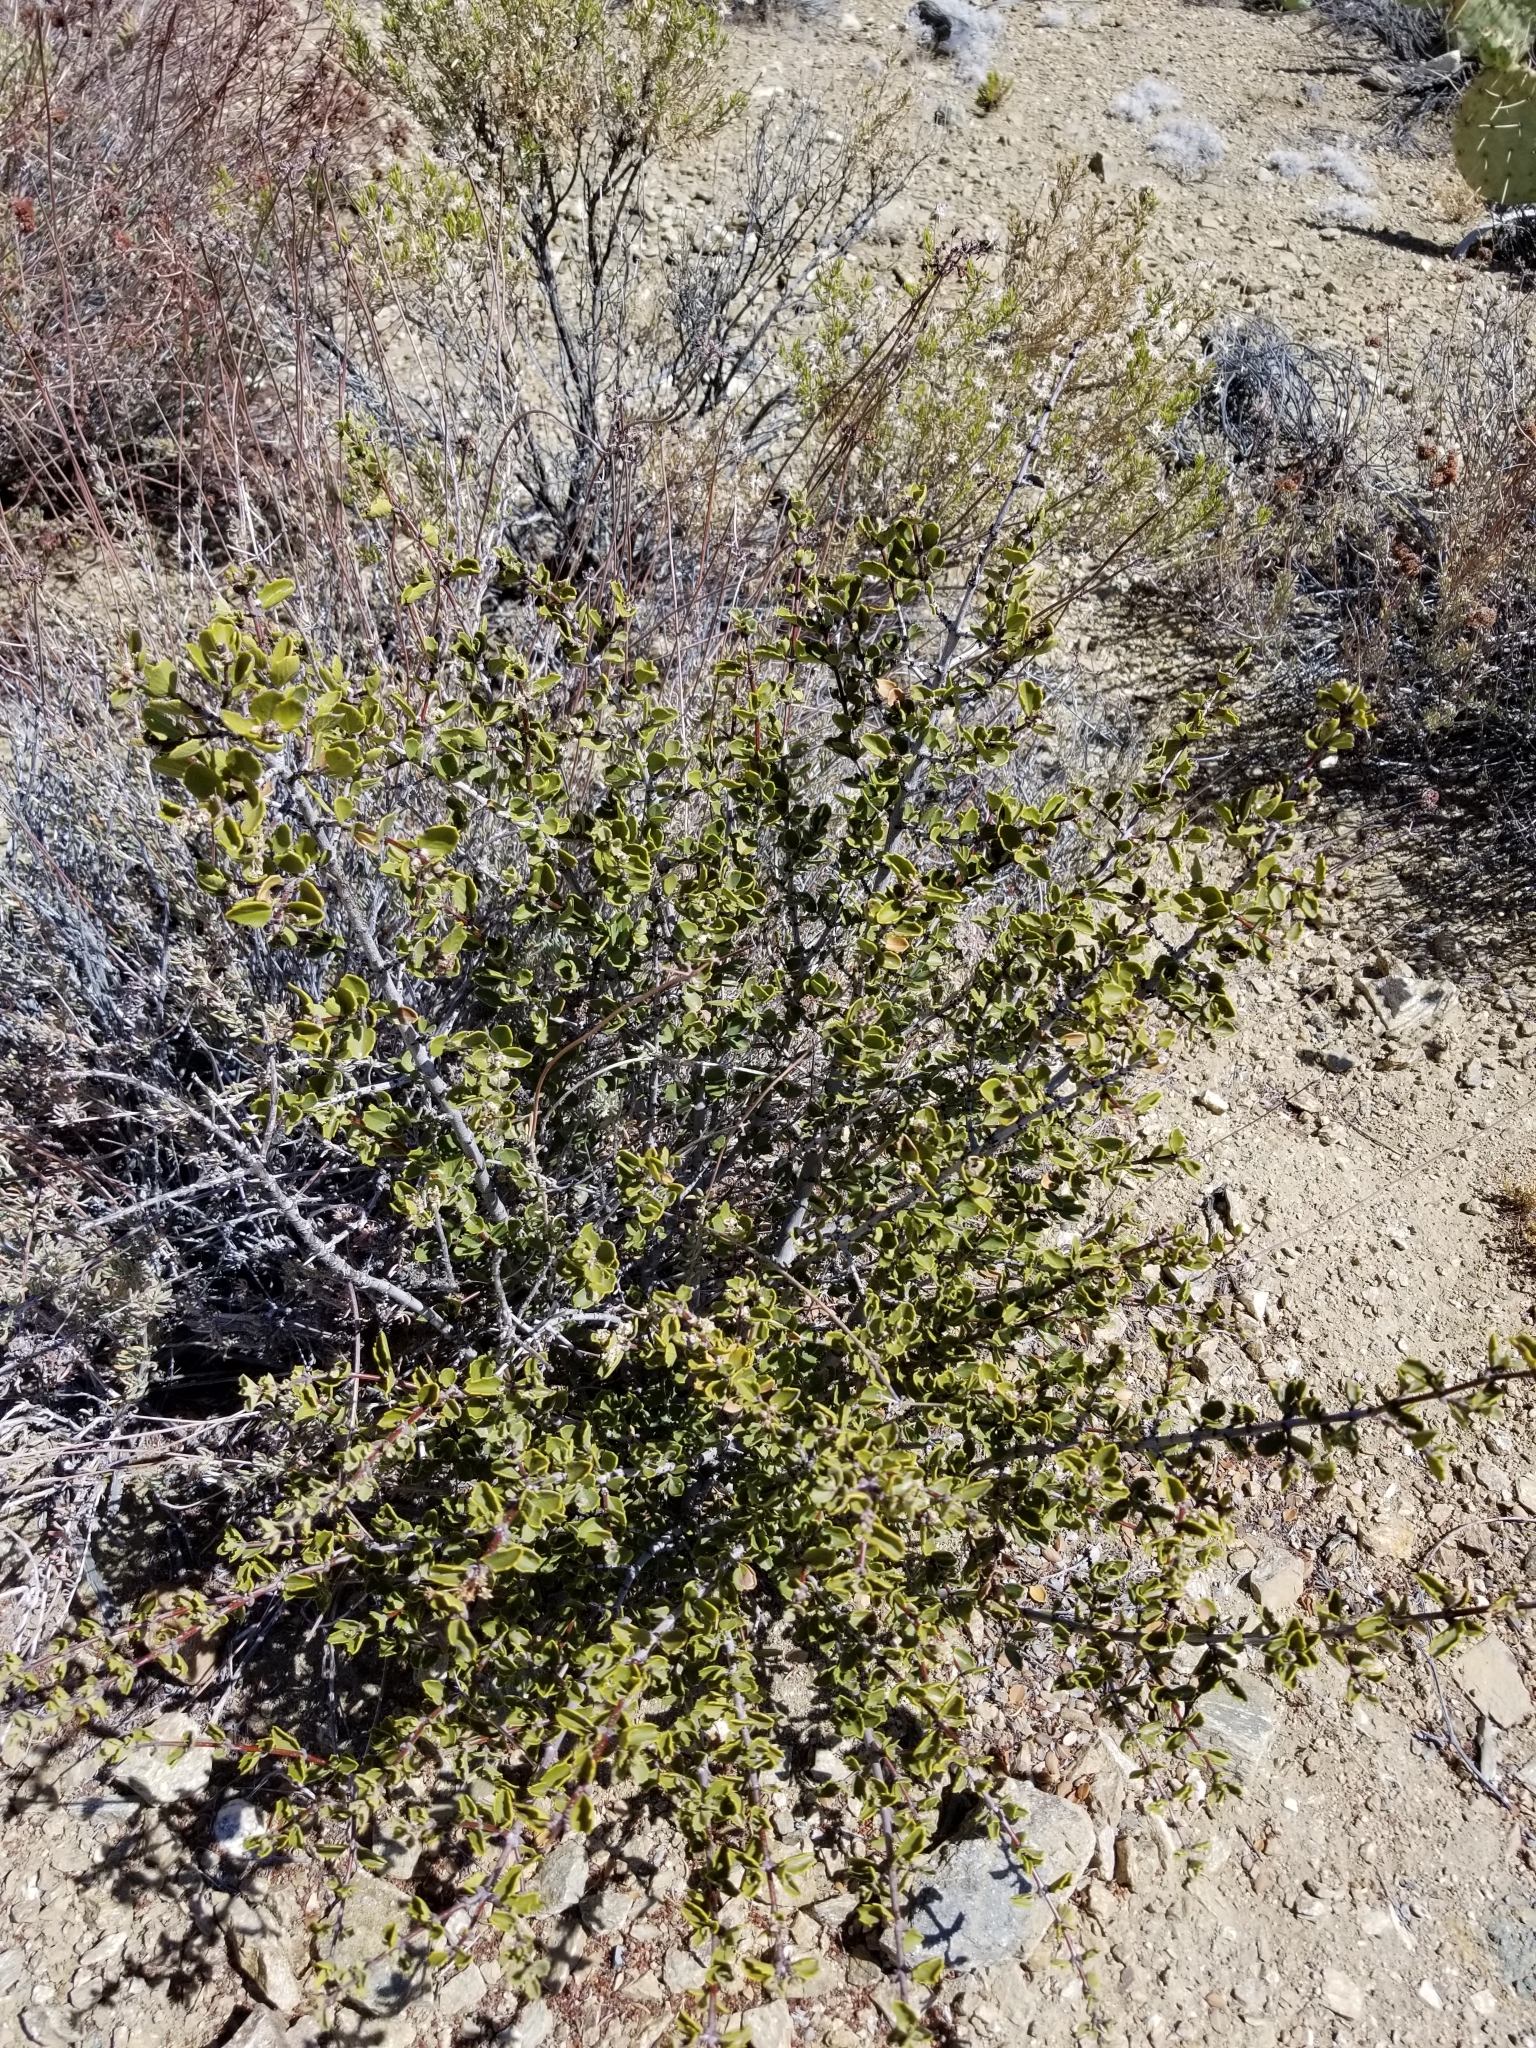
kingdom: Plantae
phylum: Tracheophyta
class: Magnoliopsida
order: Rosales
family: Rhamnaceae
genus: Ceanothus
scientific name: Ceanothus perplexans
